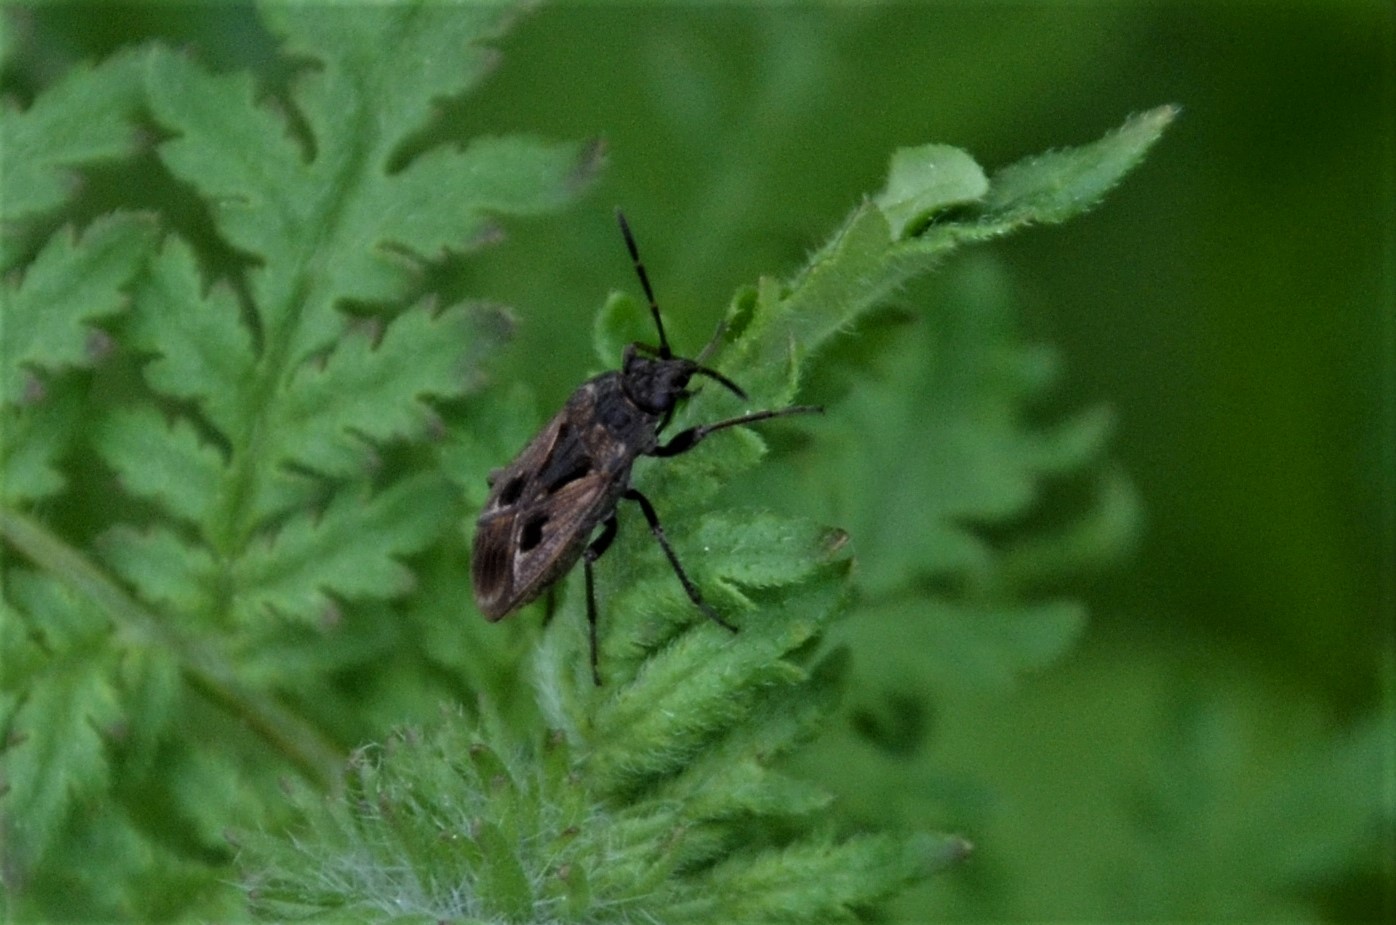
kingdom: Animalia
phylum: Arthropoda
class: Insecta
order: Hemiptera
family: Rhyparochromidae
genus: Rhyparochromus
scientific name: Rhyparochromus pini
